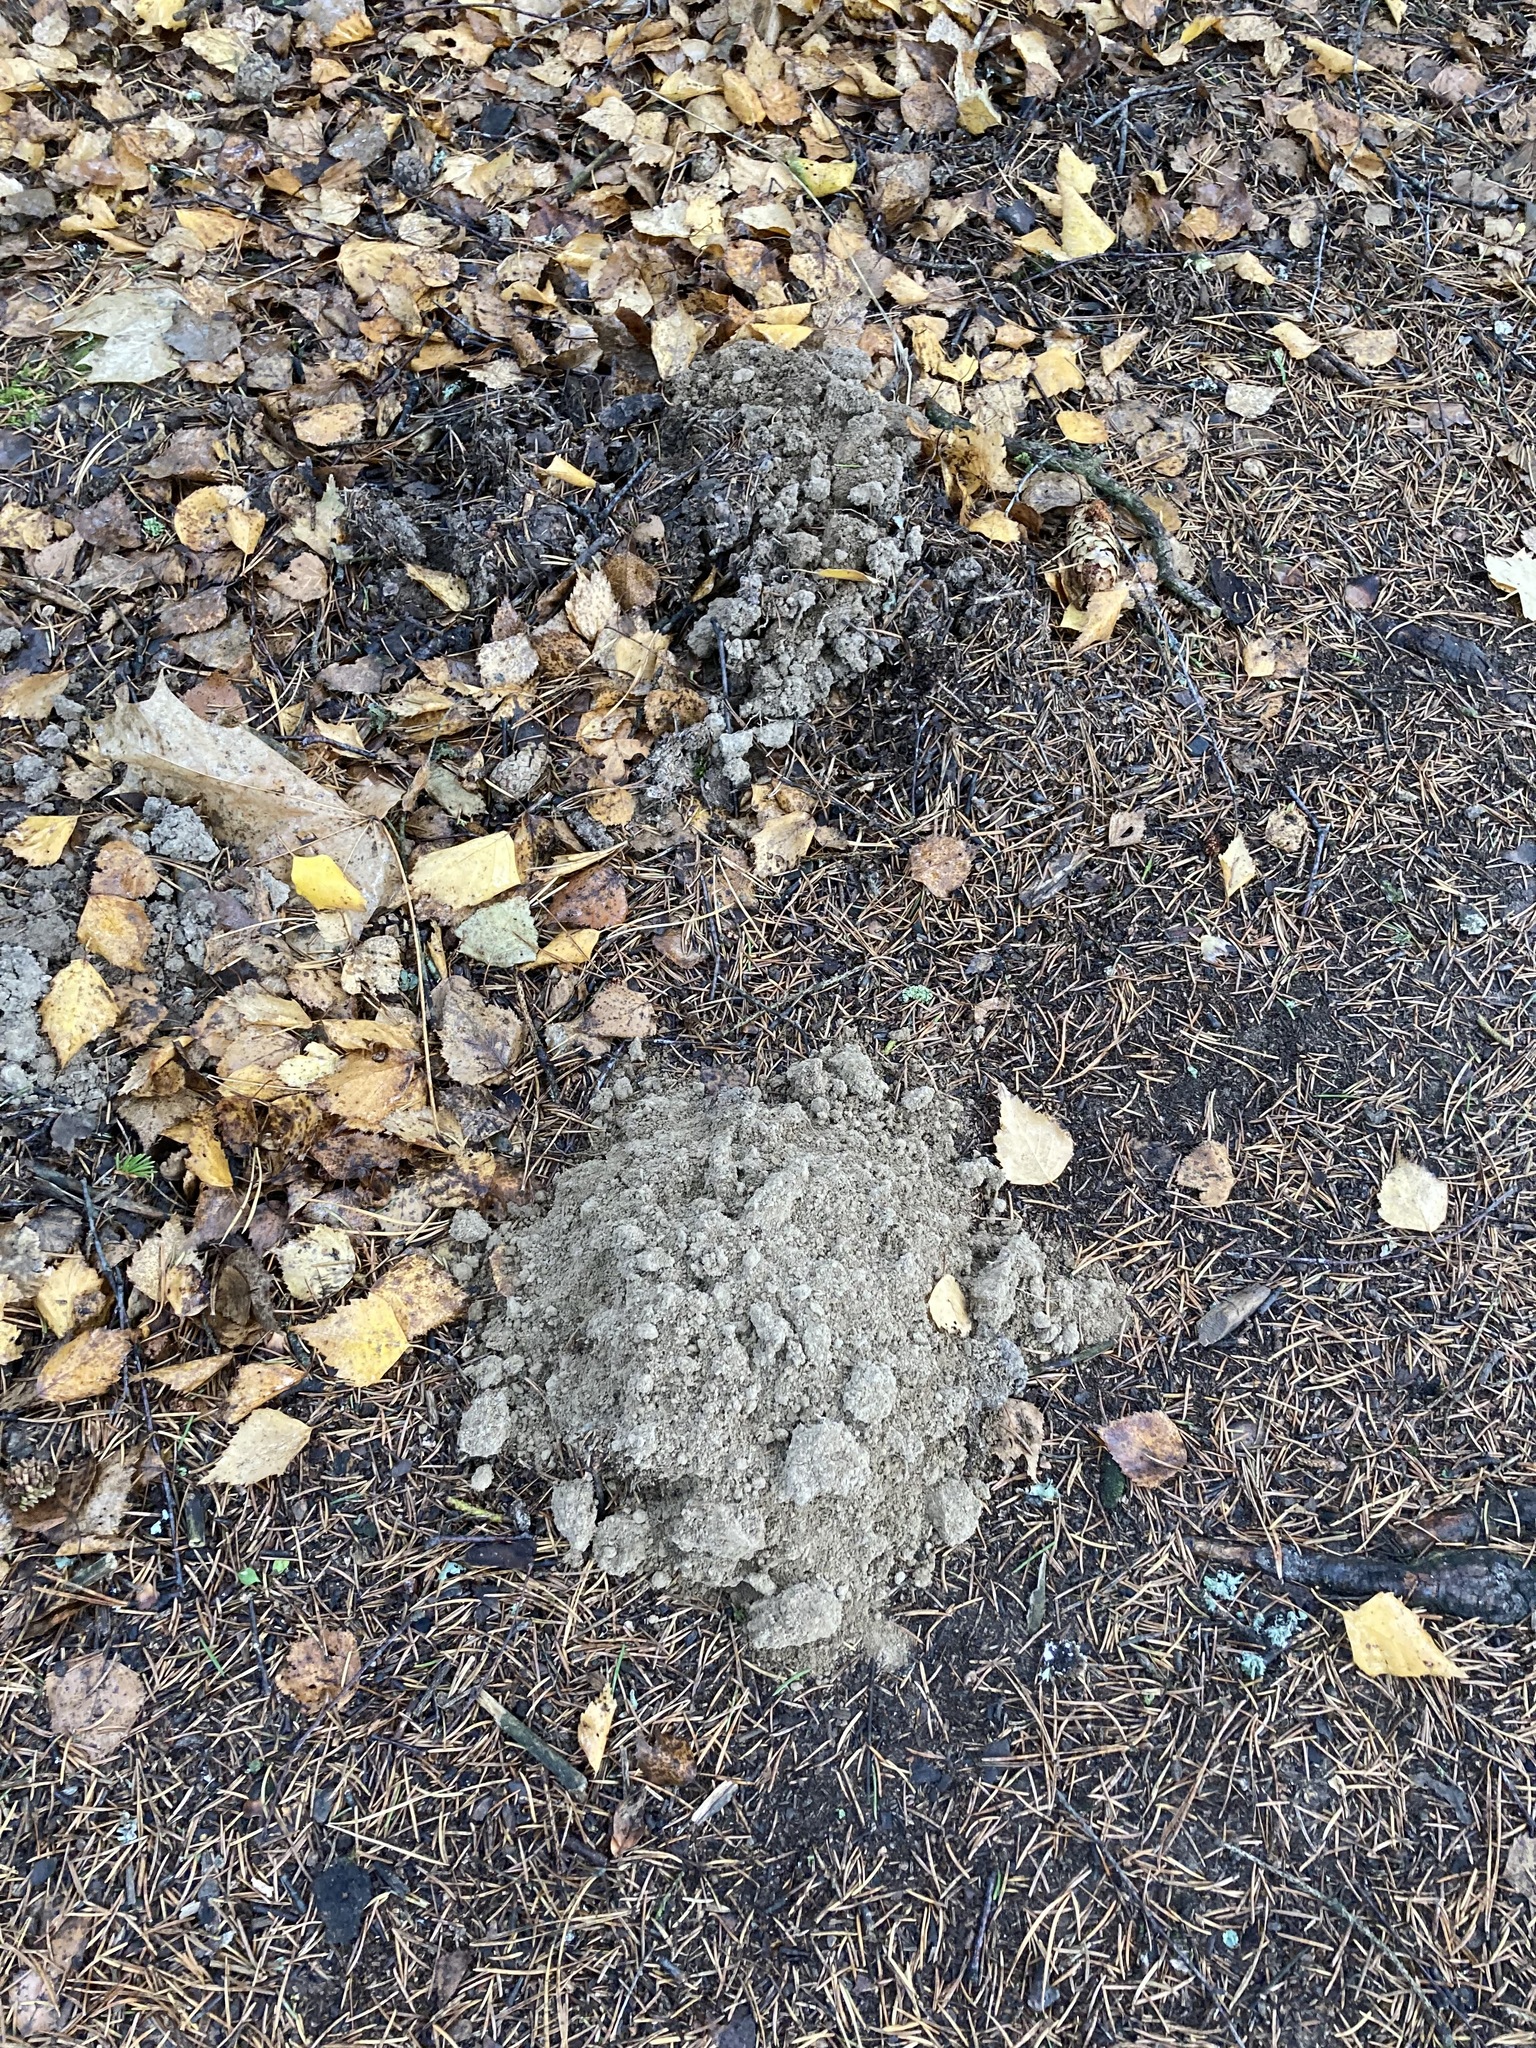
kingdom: Animalia
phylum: Chordata
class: Mammalia
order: Soricomorpha
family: Talpidae
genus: Talpa
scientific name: Talpa europaea
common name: European mole
